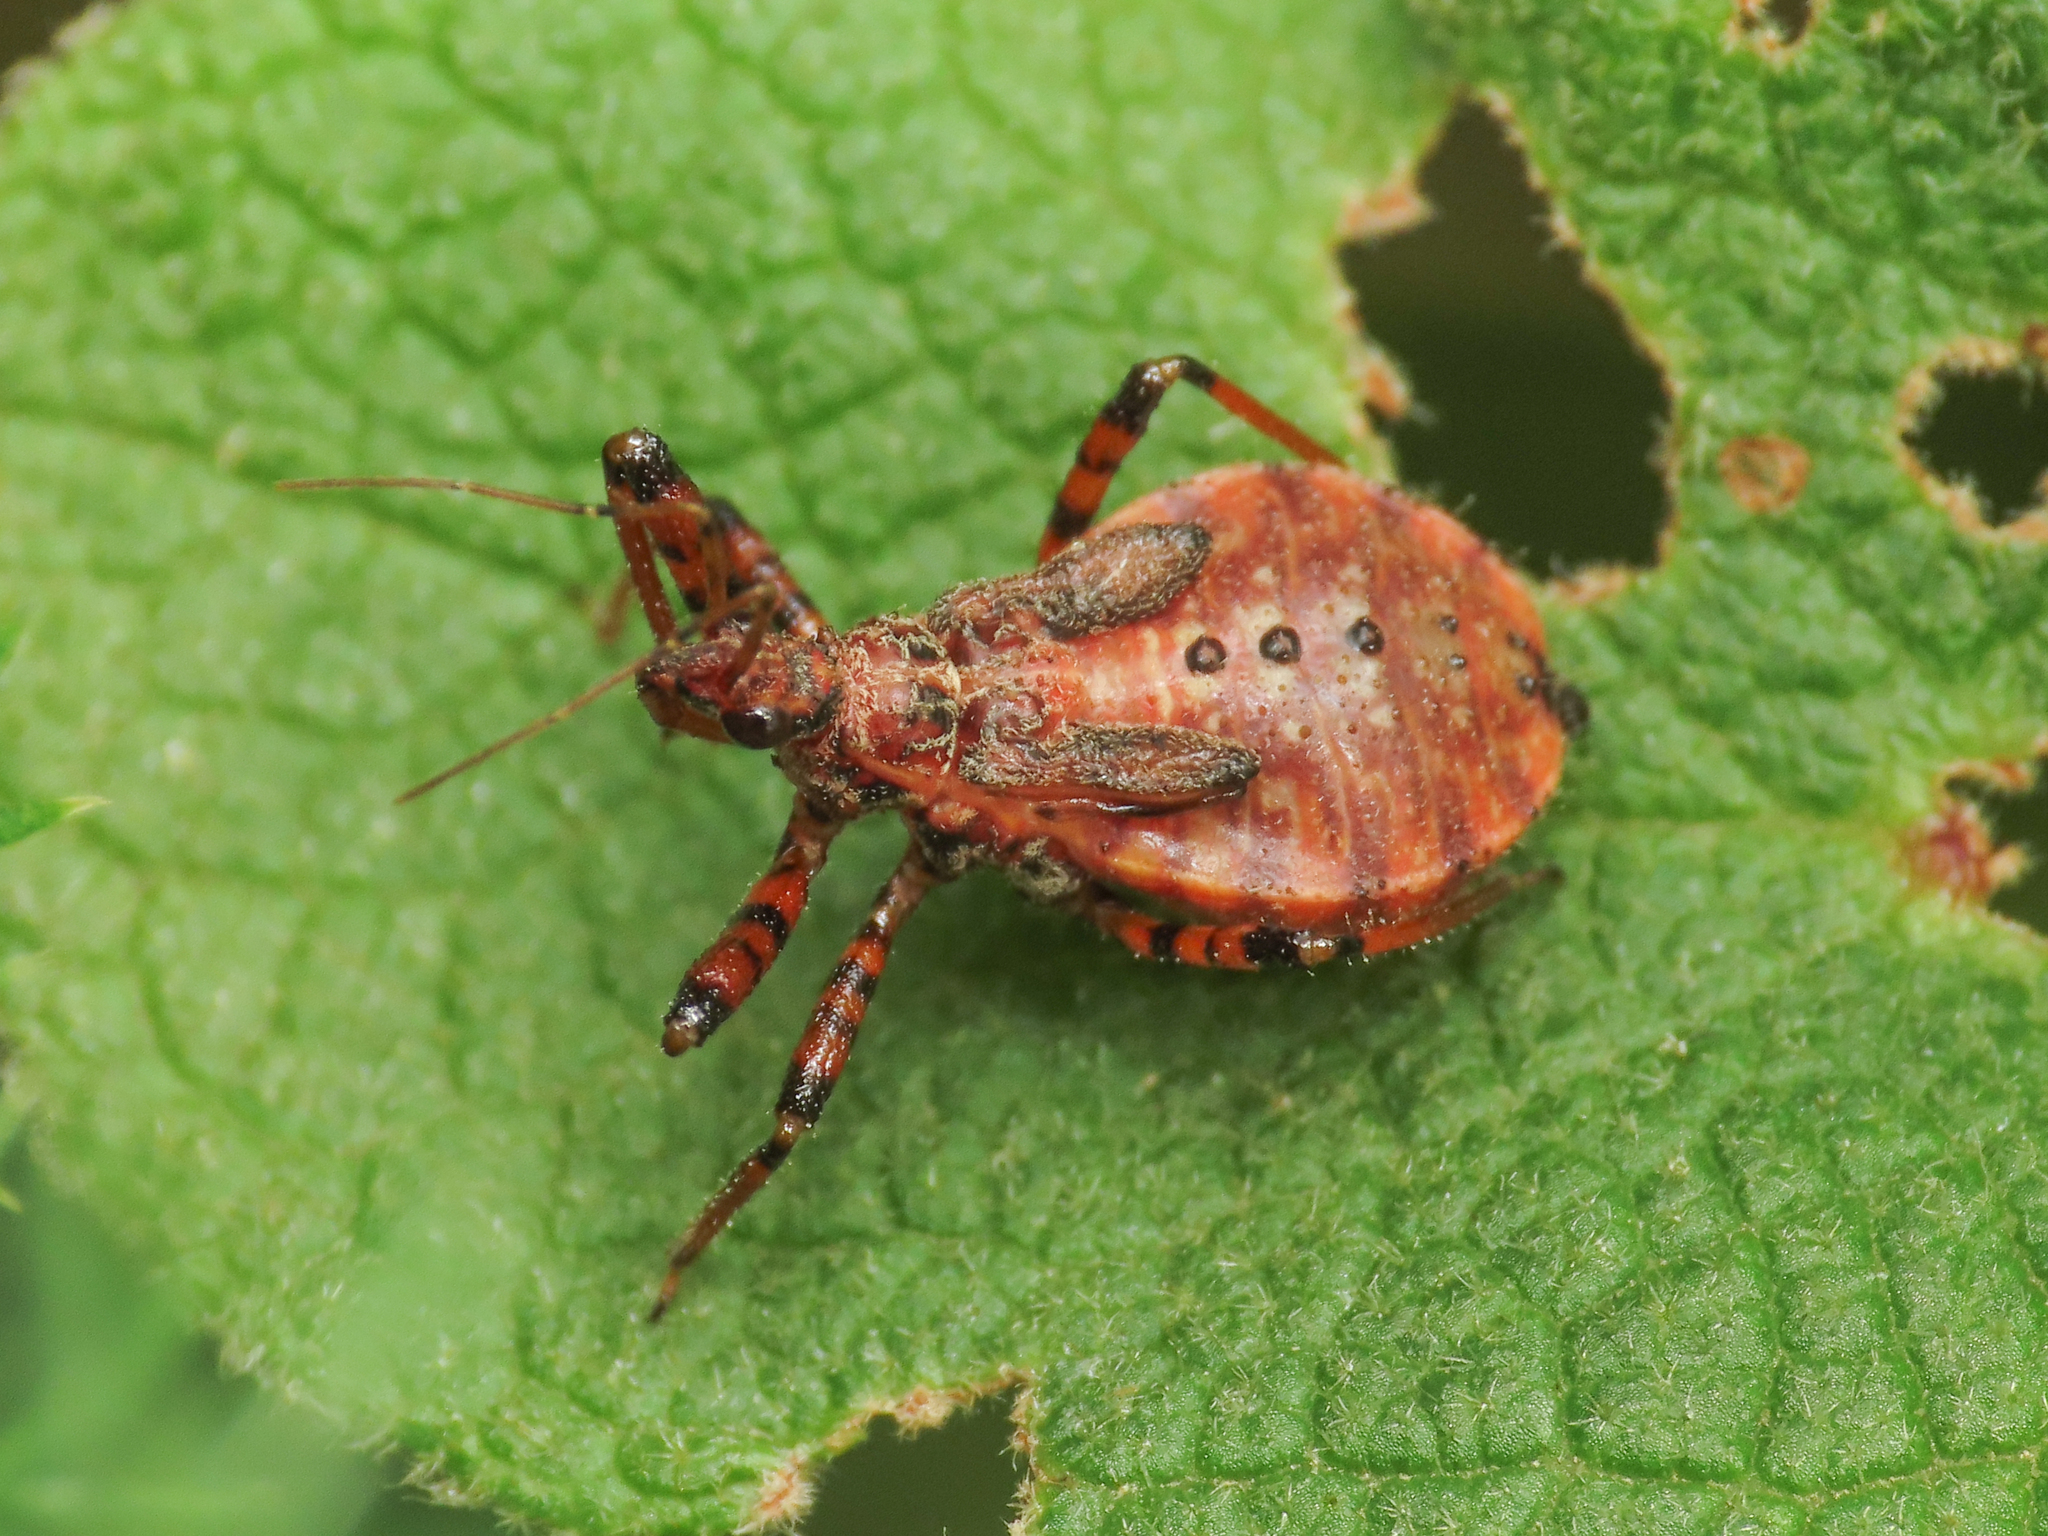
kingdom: Animalia
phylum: Arthropoda
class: Insecta
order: Hemiptera
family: Reduviidae
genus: Sphedanolestes
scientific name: Sphedanolestes cingulatus
